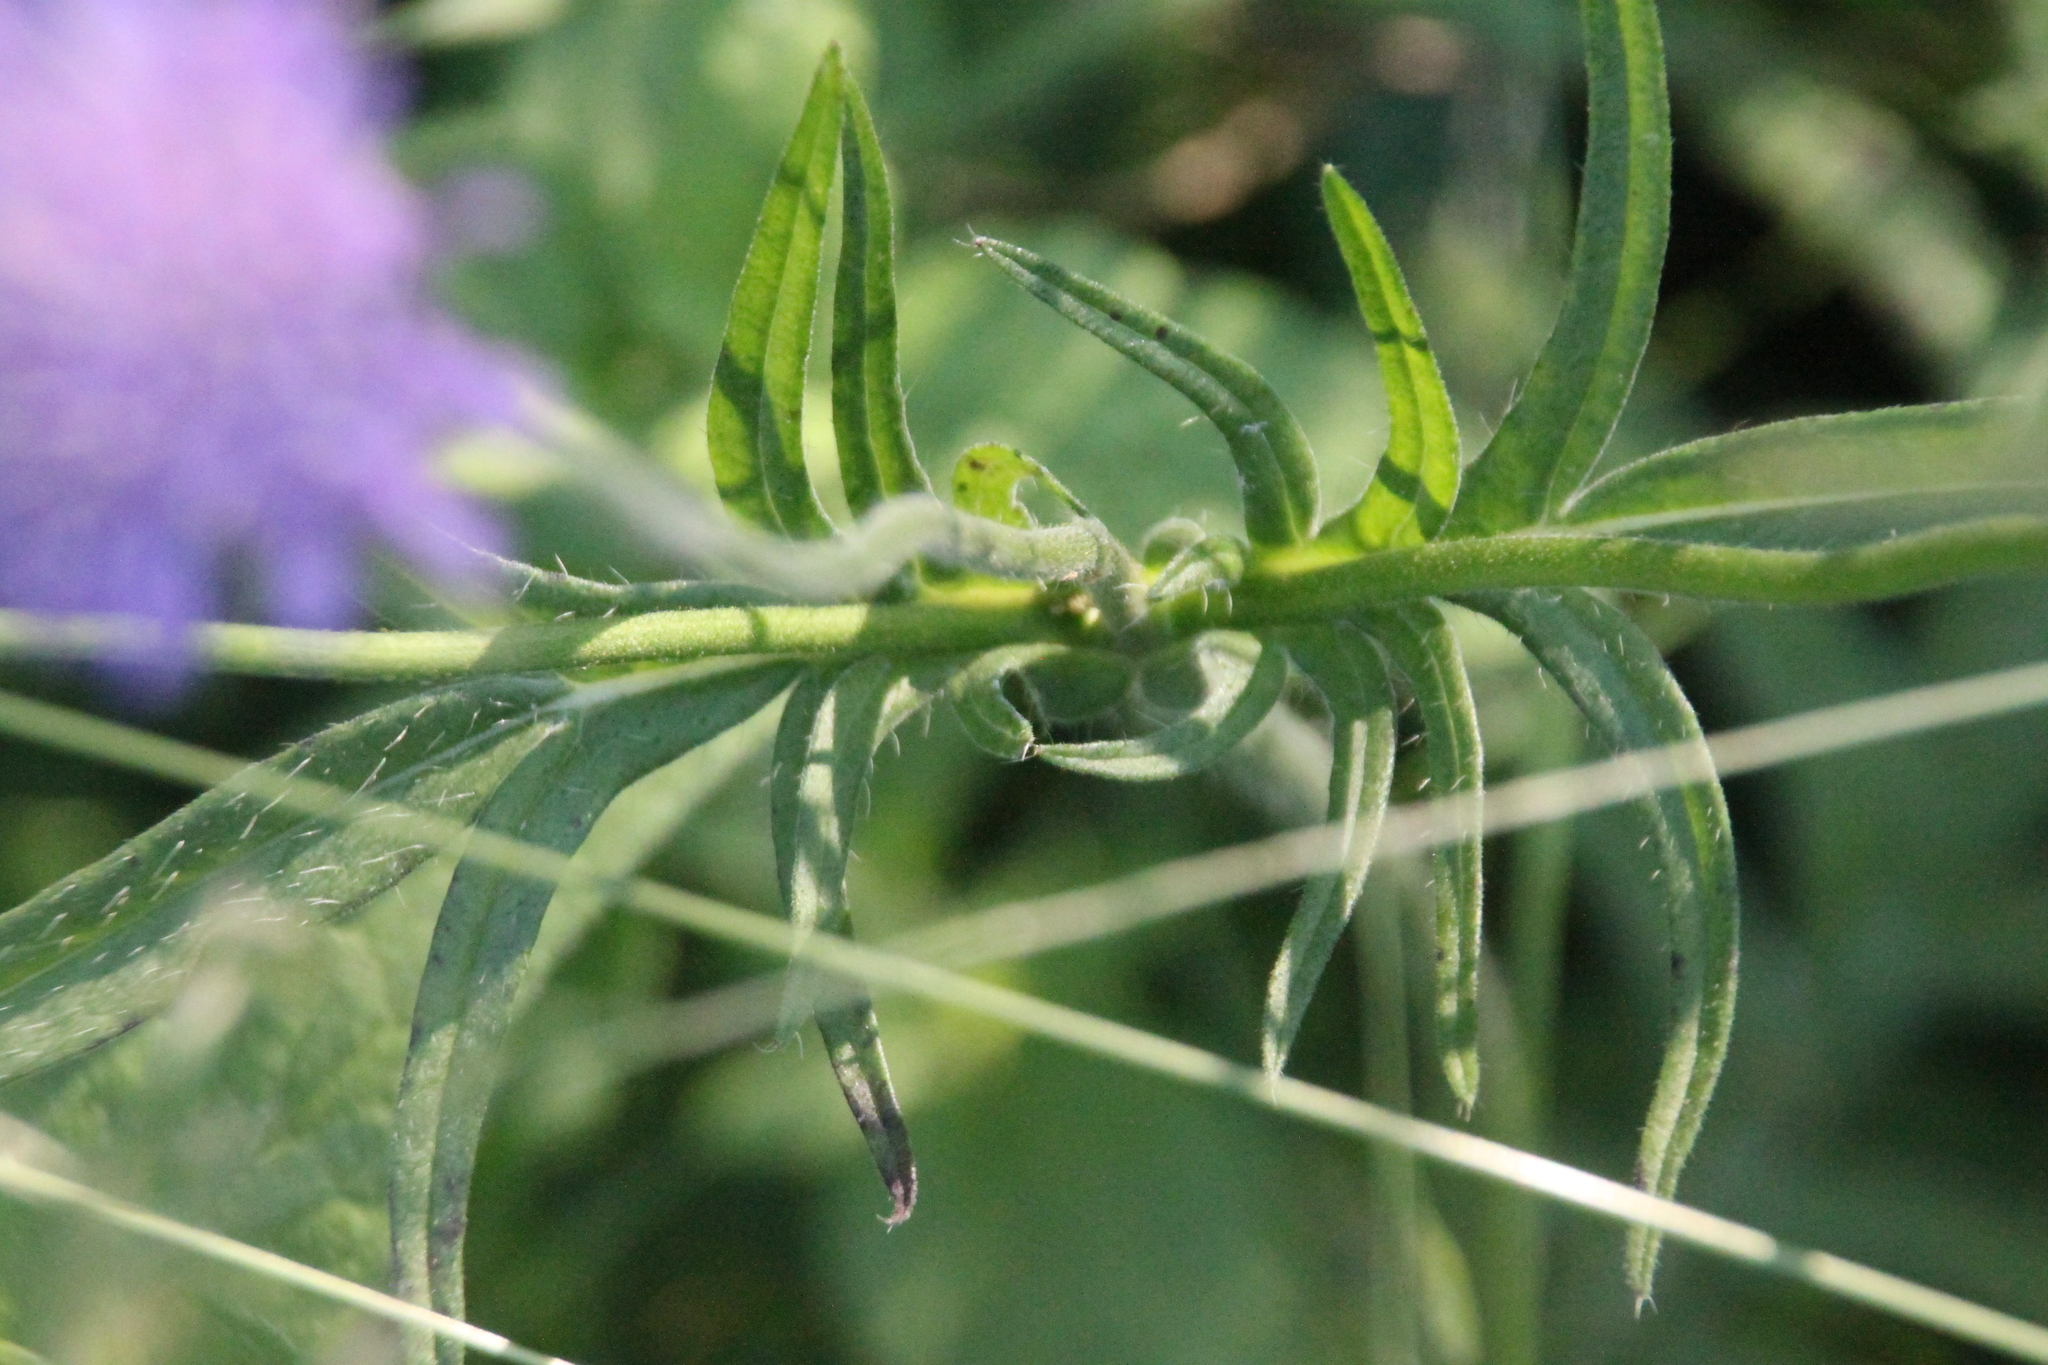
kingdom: Plantae
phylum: Tracheophyta
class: Magnoliopsida
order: Dipsacales
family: Caprifoliaceae
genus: Knautia
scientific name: Knautia arvensis
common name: Field scabiosa
